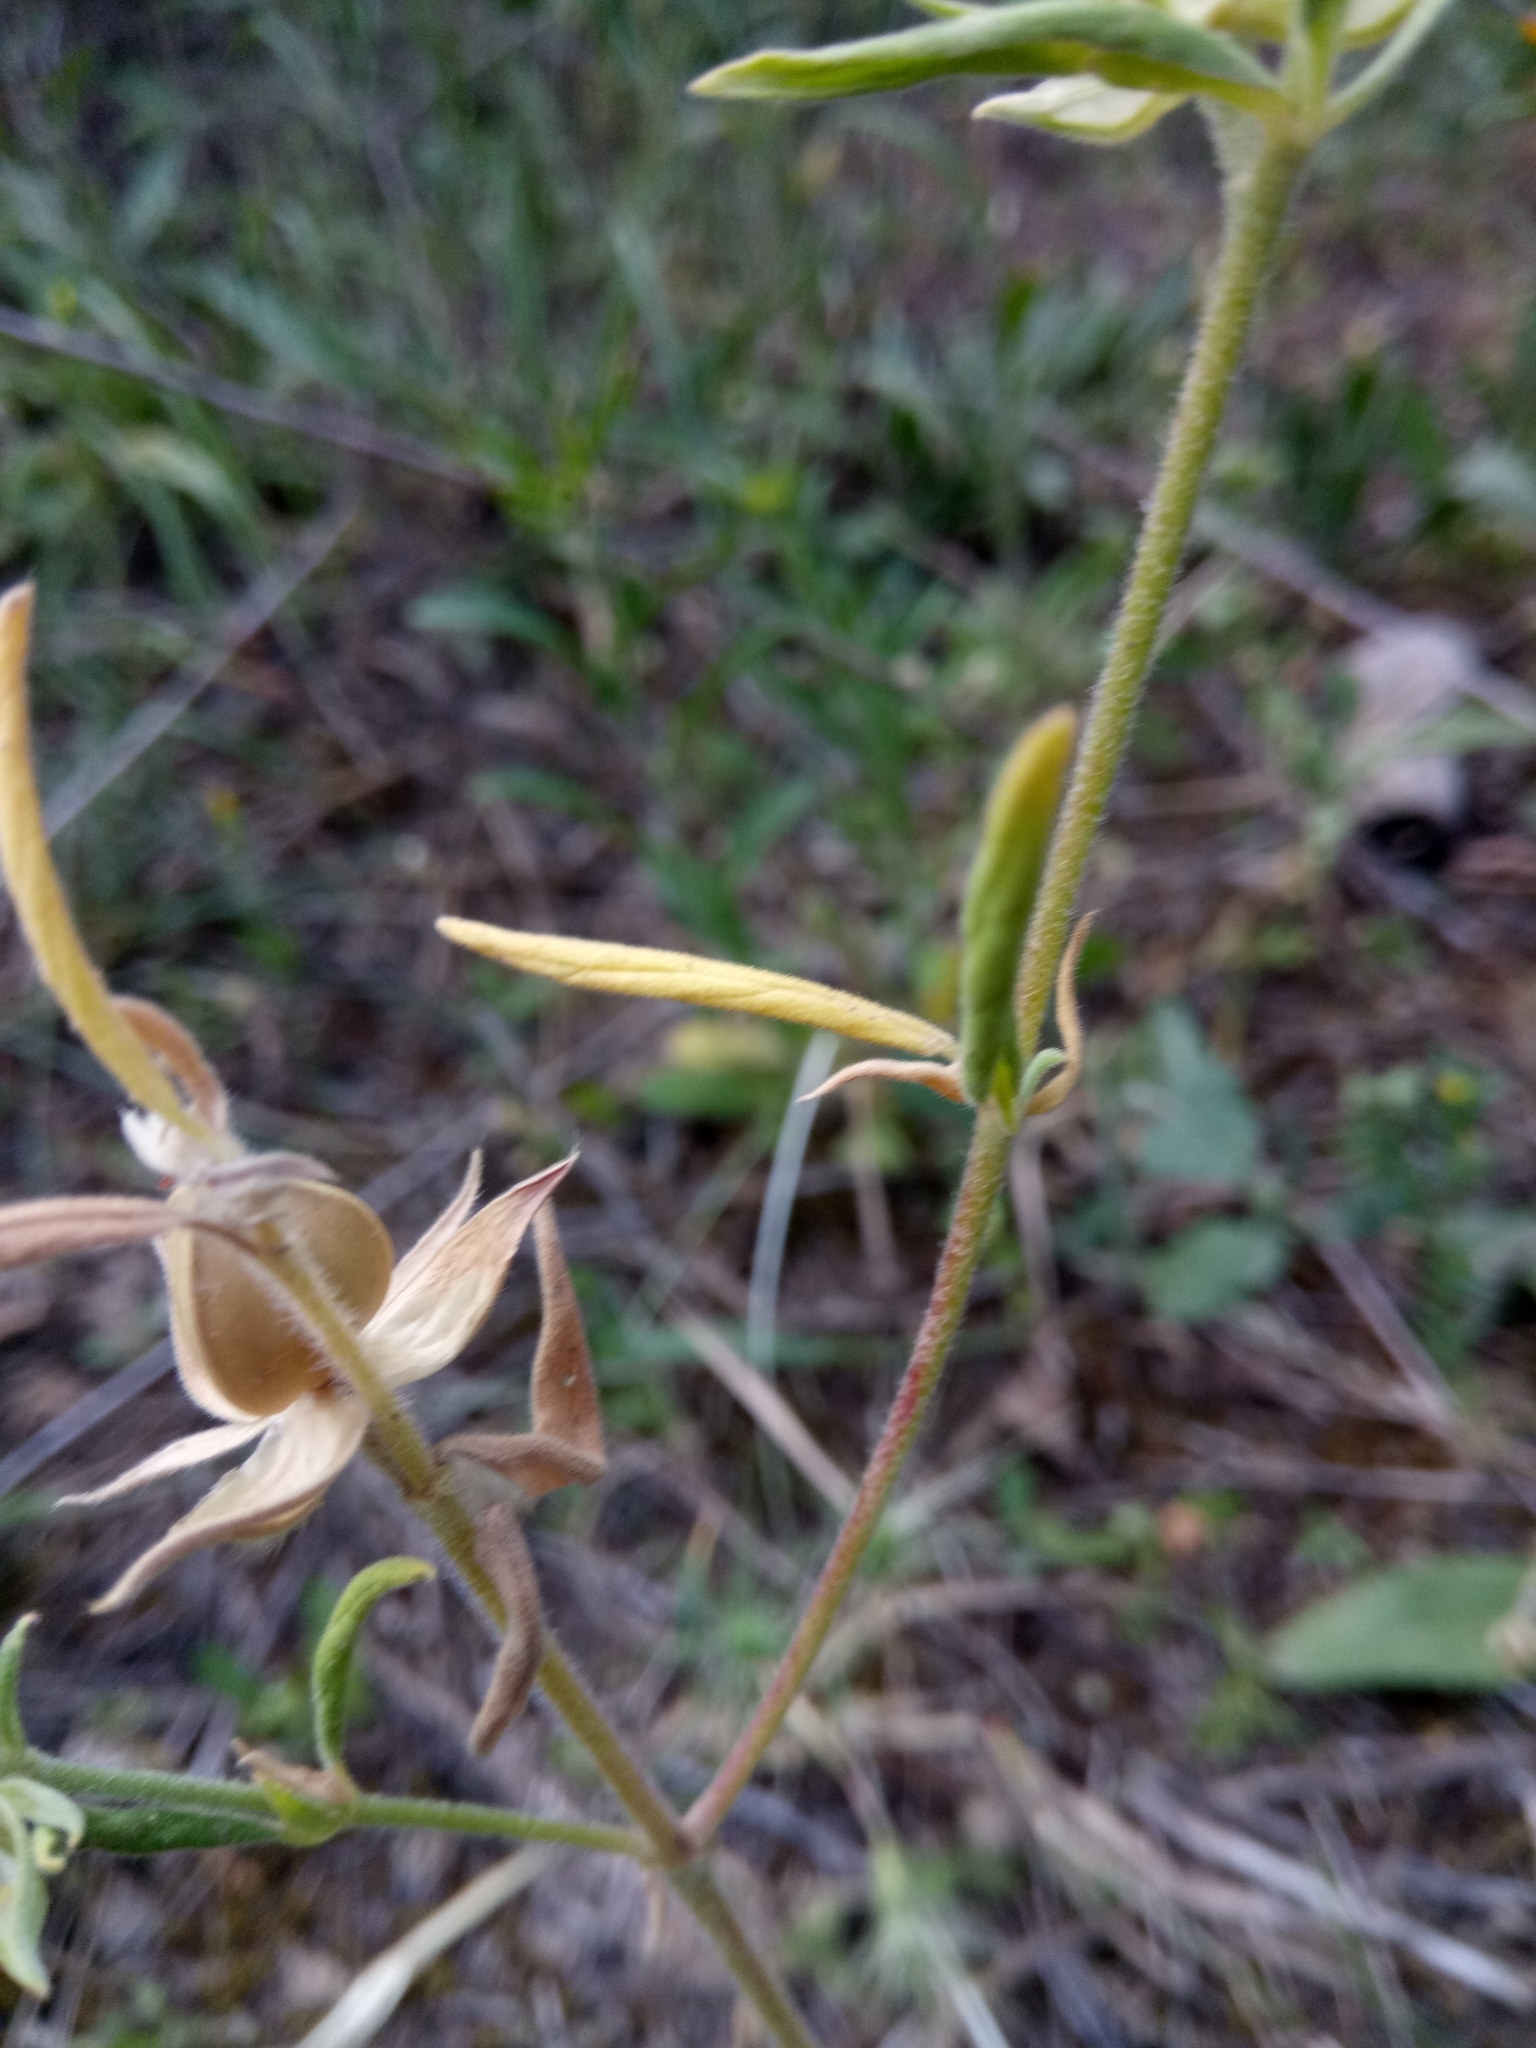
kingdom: Plantae
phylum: Tracheophyta
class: Magnoliopsida
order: Malvales
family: Cistaceae
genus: Helianthemum
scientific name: Helianthemum ledifolium
